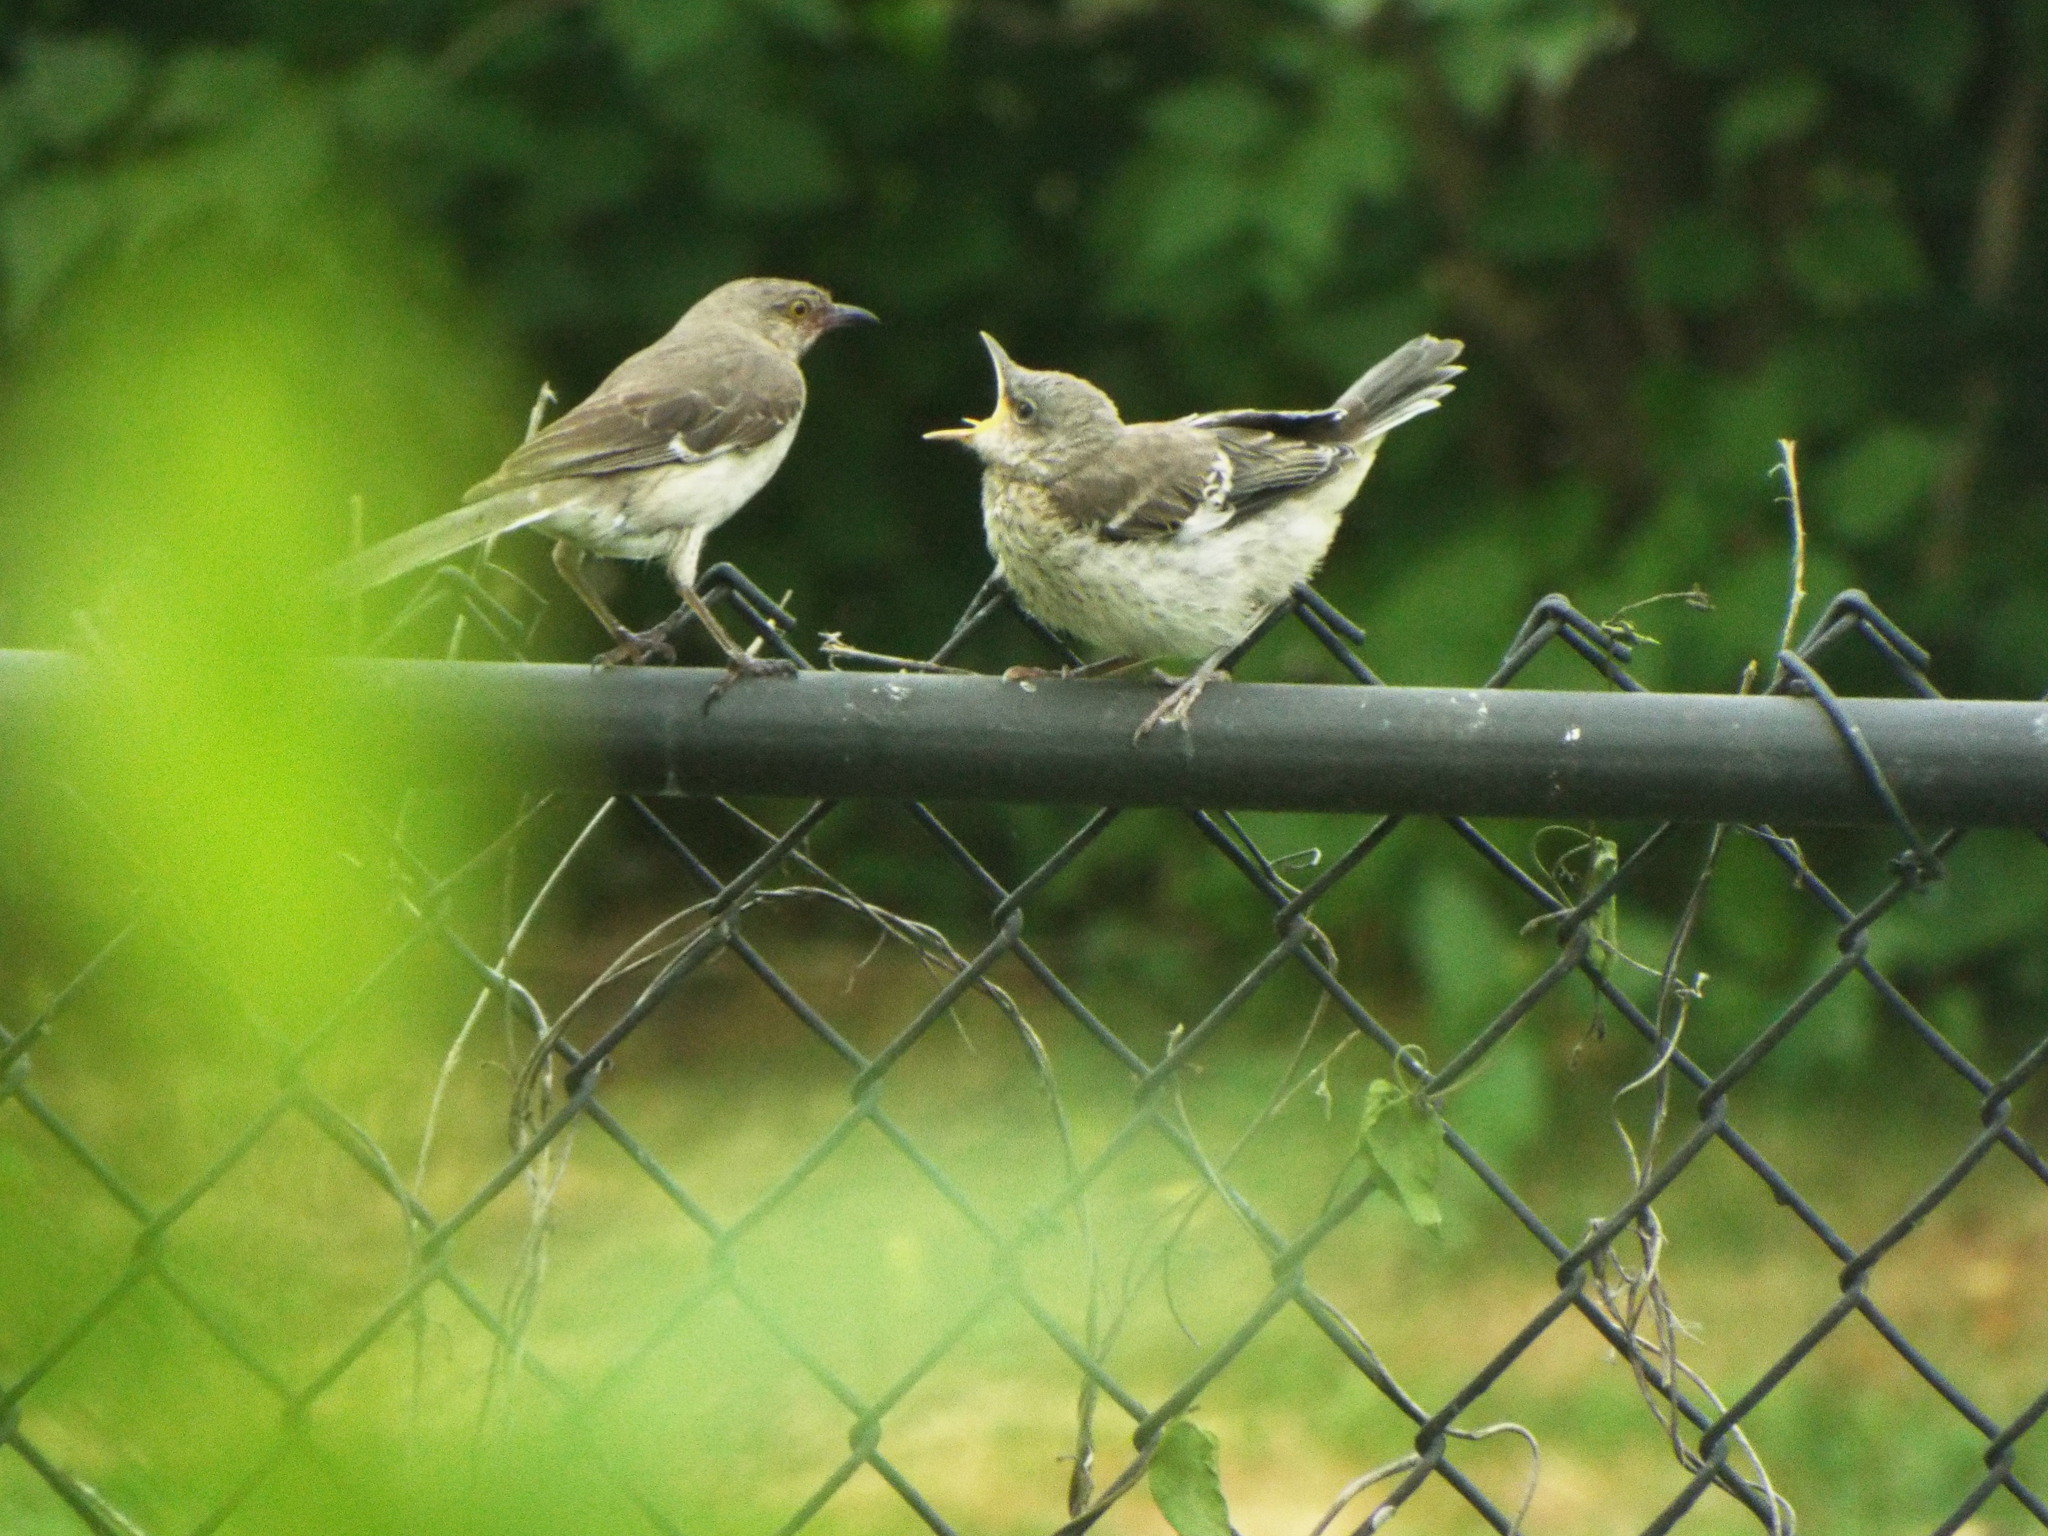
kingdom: Animalia
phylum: Chordata
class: Aves
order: Passeriformes
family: Mimidae
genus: Mimus
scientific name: Mimus polyglottos
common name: Northern mockingbird
